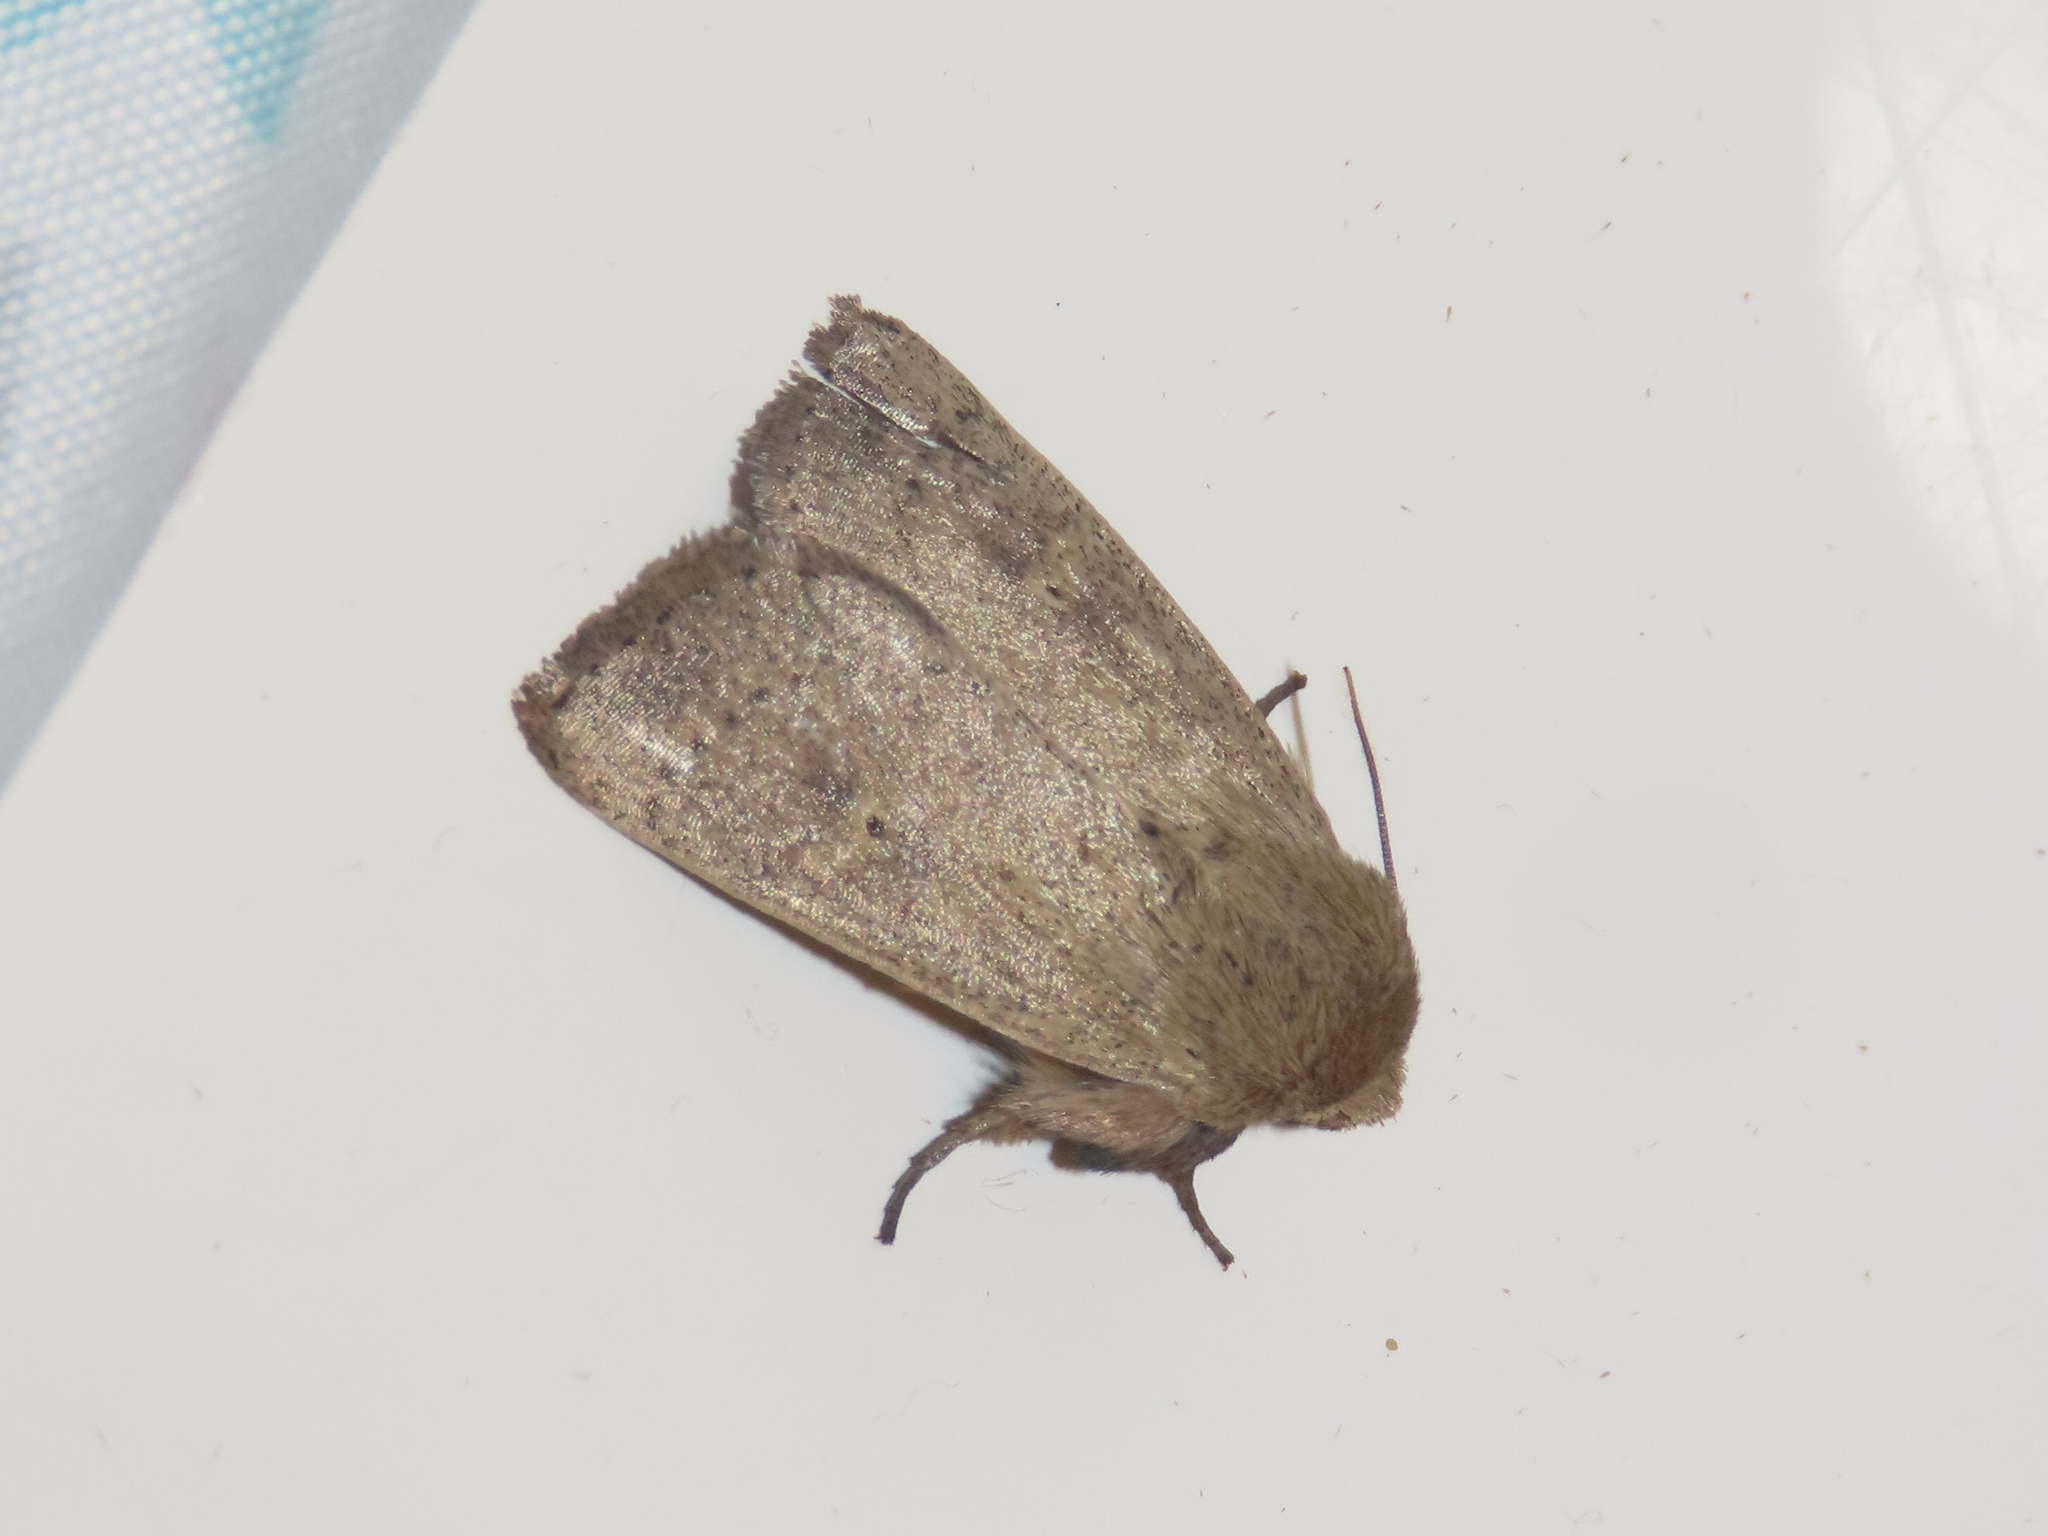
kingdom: Animalia
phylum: Arthropoda
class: Insecta
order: Lepidoptera
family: Noctuidae
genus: Leucania
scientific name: Leucania ursula
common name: Ursula wainscot
